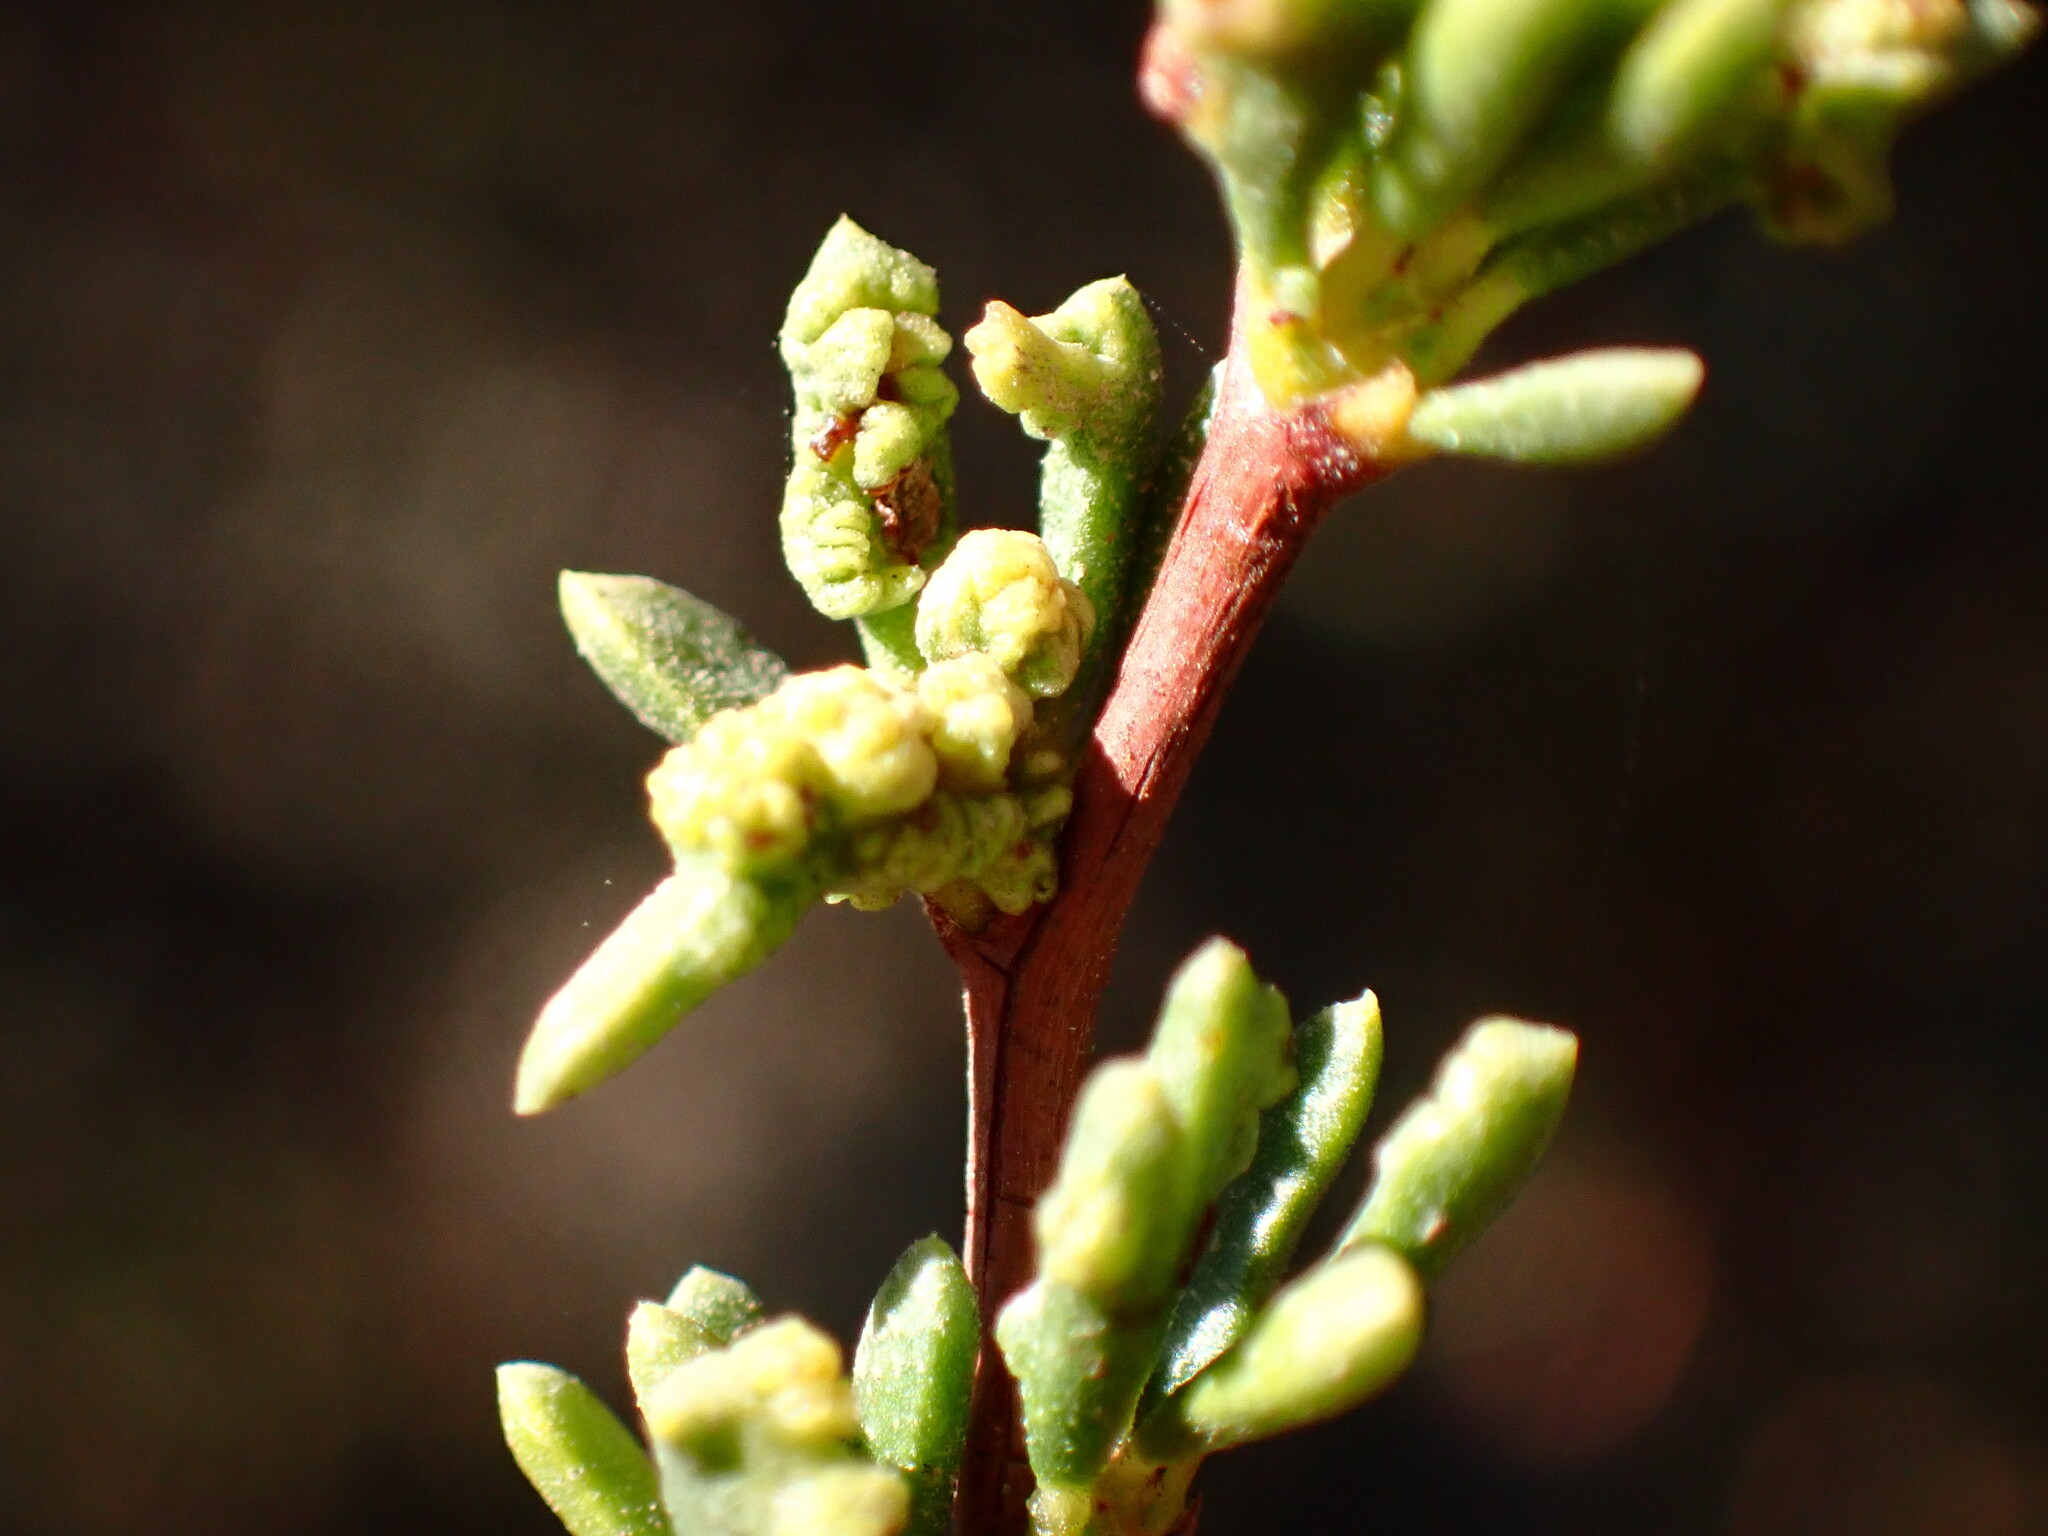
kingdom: Animalia
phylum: Arthropoda
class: Arachnida
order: Trombidiformes
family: Eriophyidae
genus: Eriophyes
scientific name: Eriophyes
